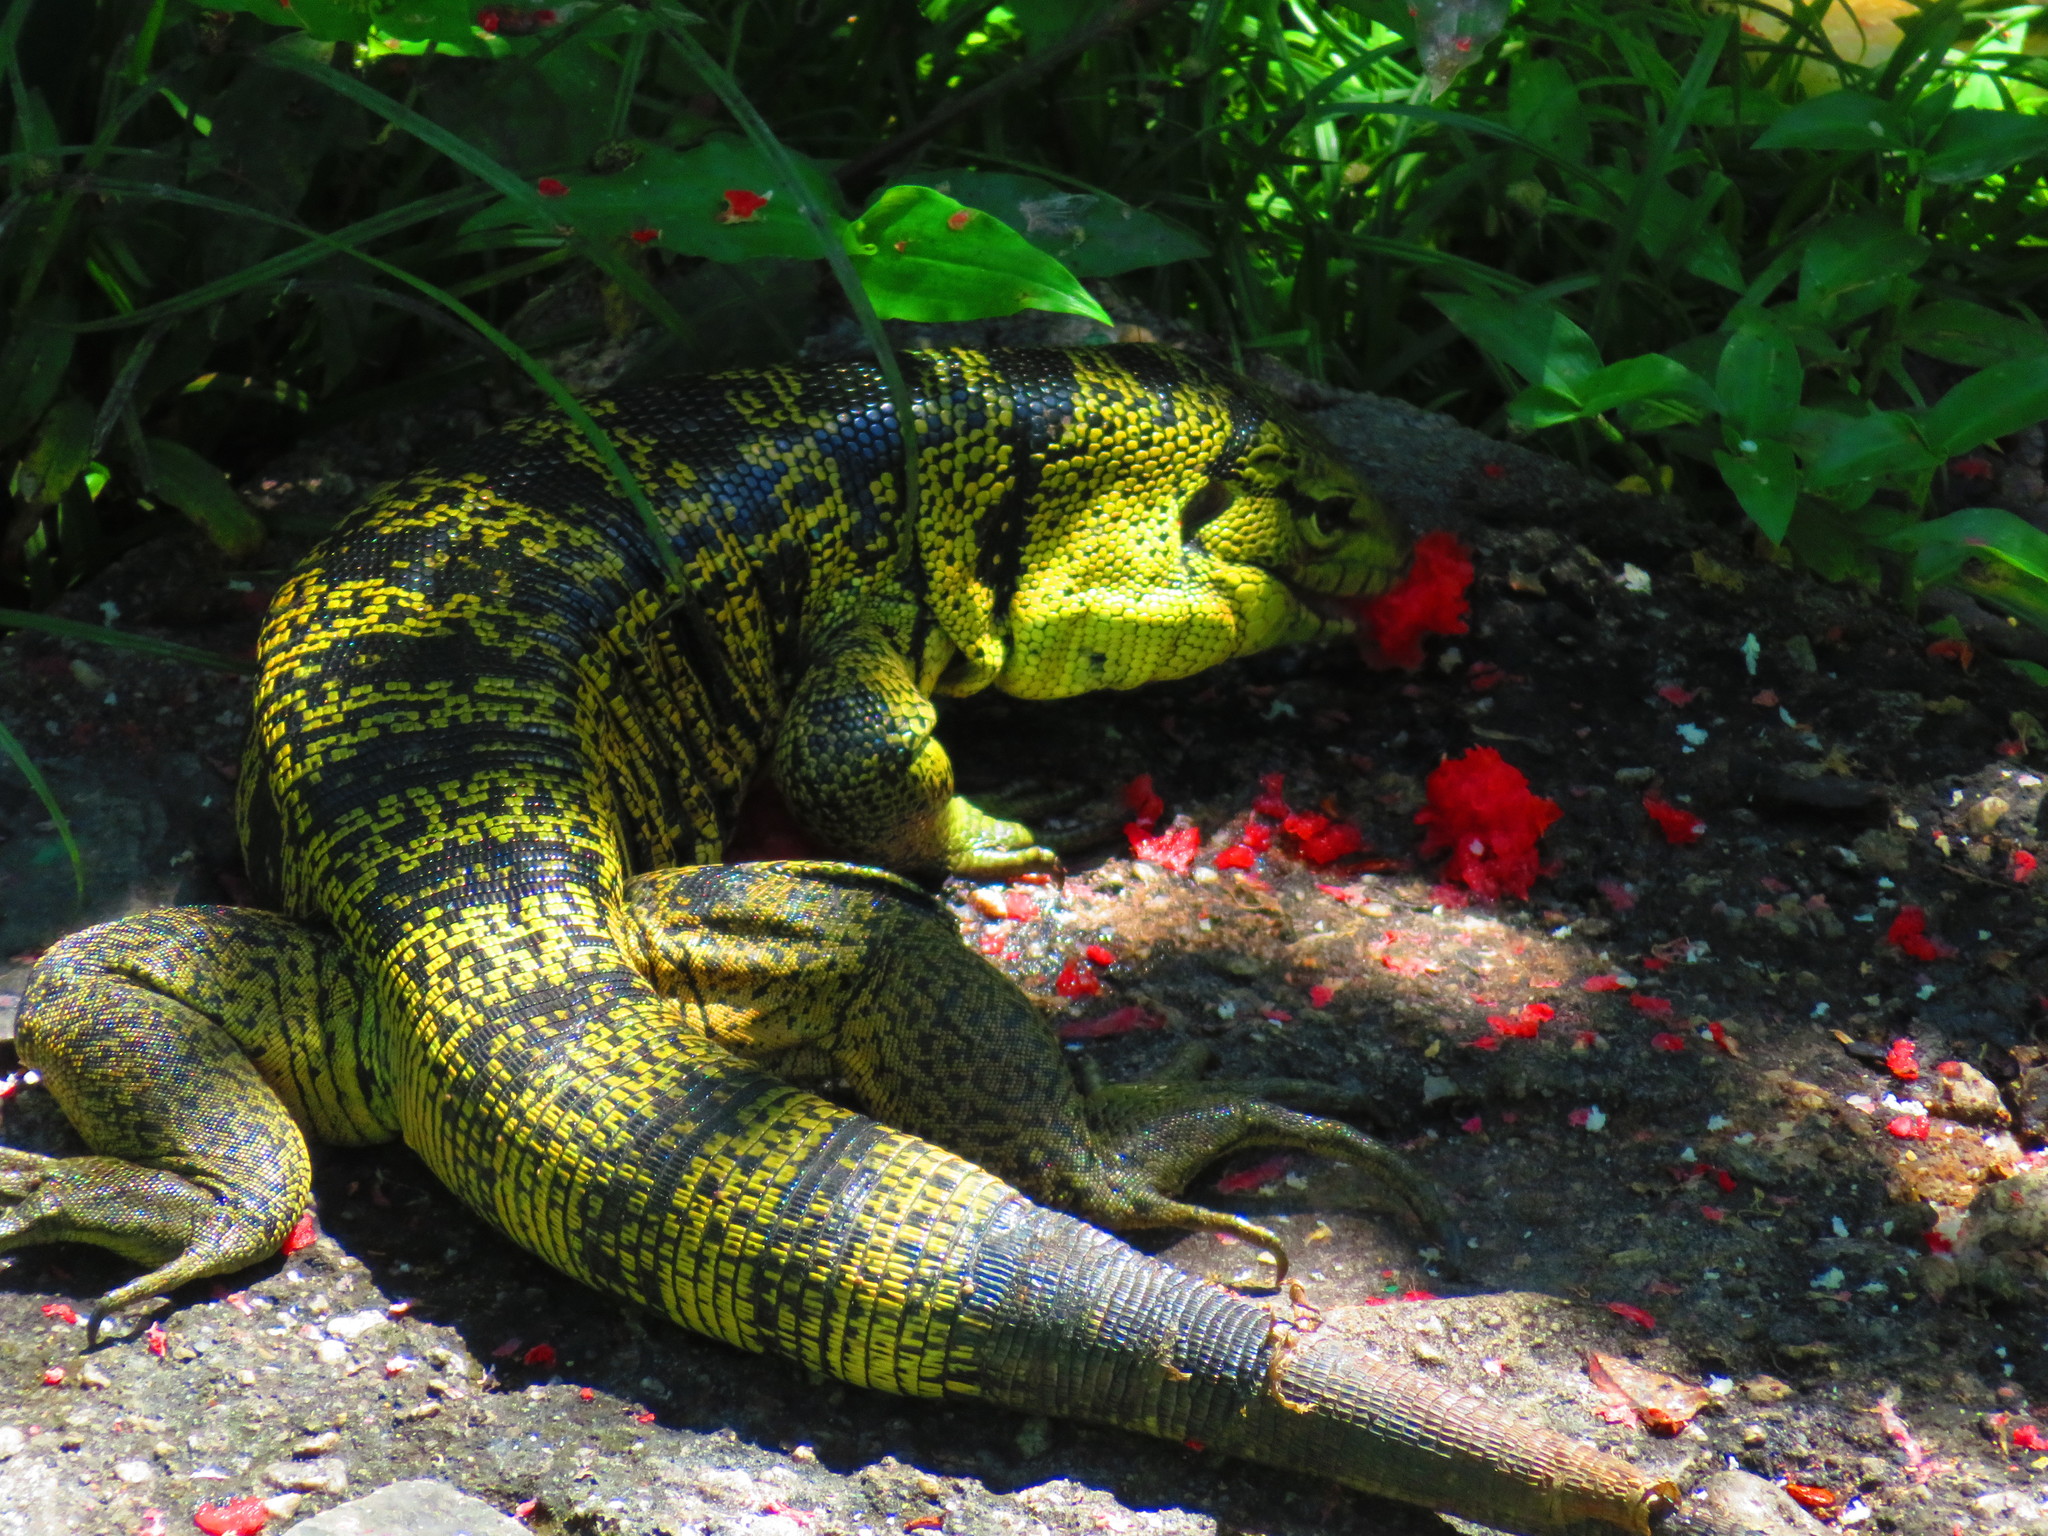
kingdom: Animalia
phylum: Chordata
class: Squamata
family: Teiidae
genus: Tupinambis
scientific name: Tupinambis cryptus
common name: Cryptic golden tegu
